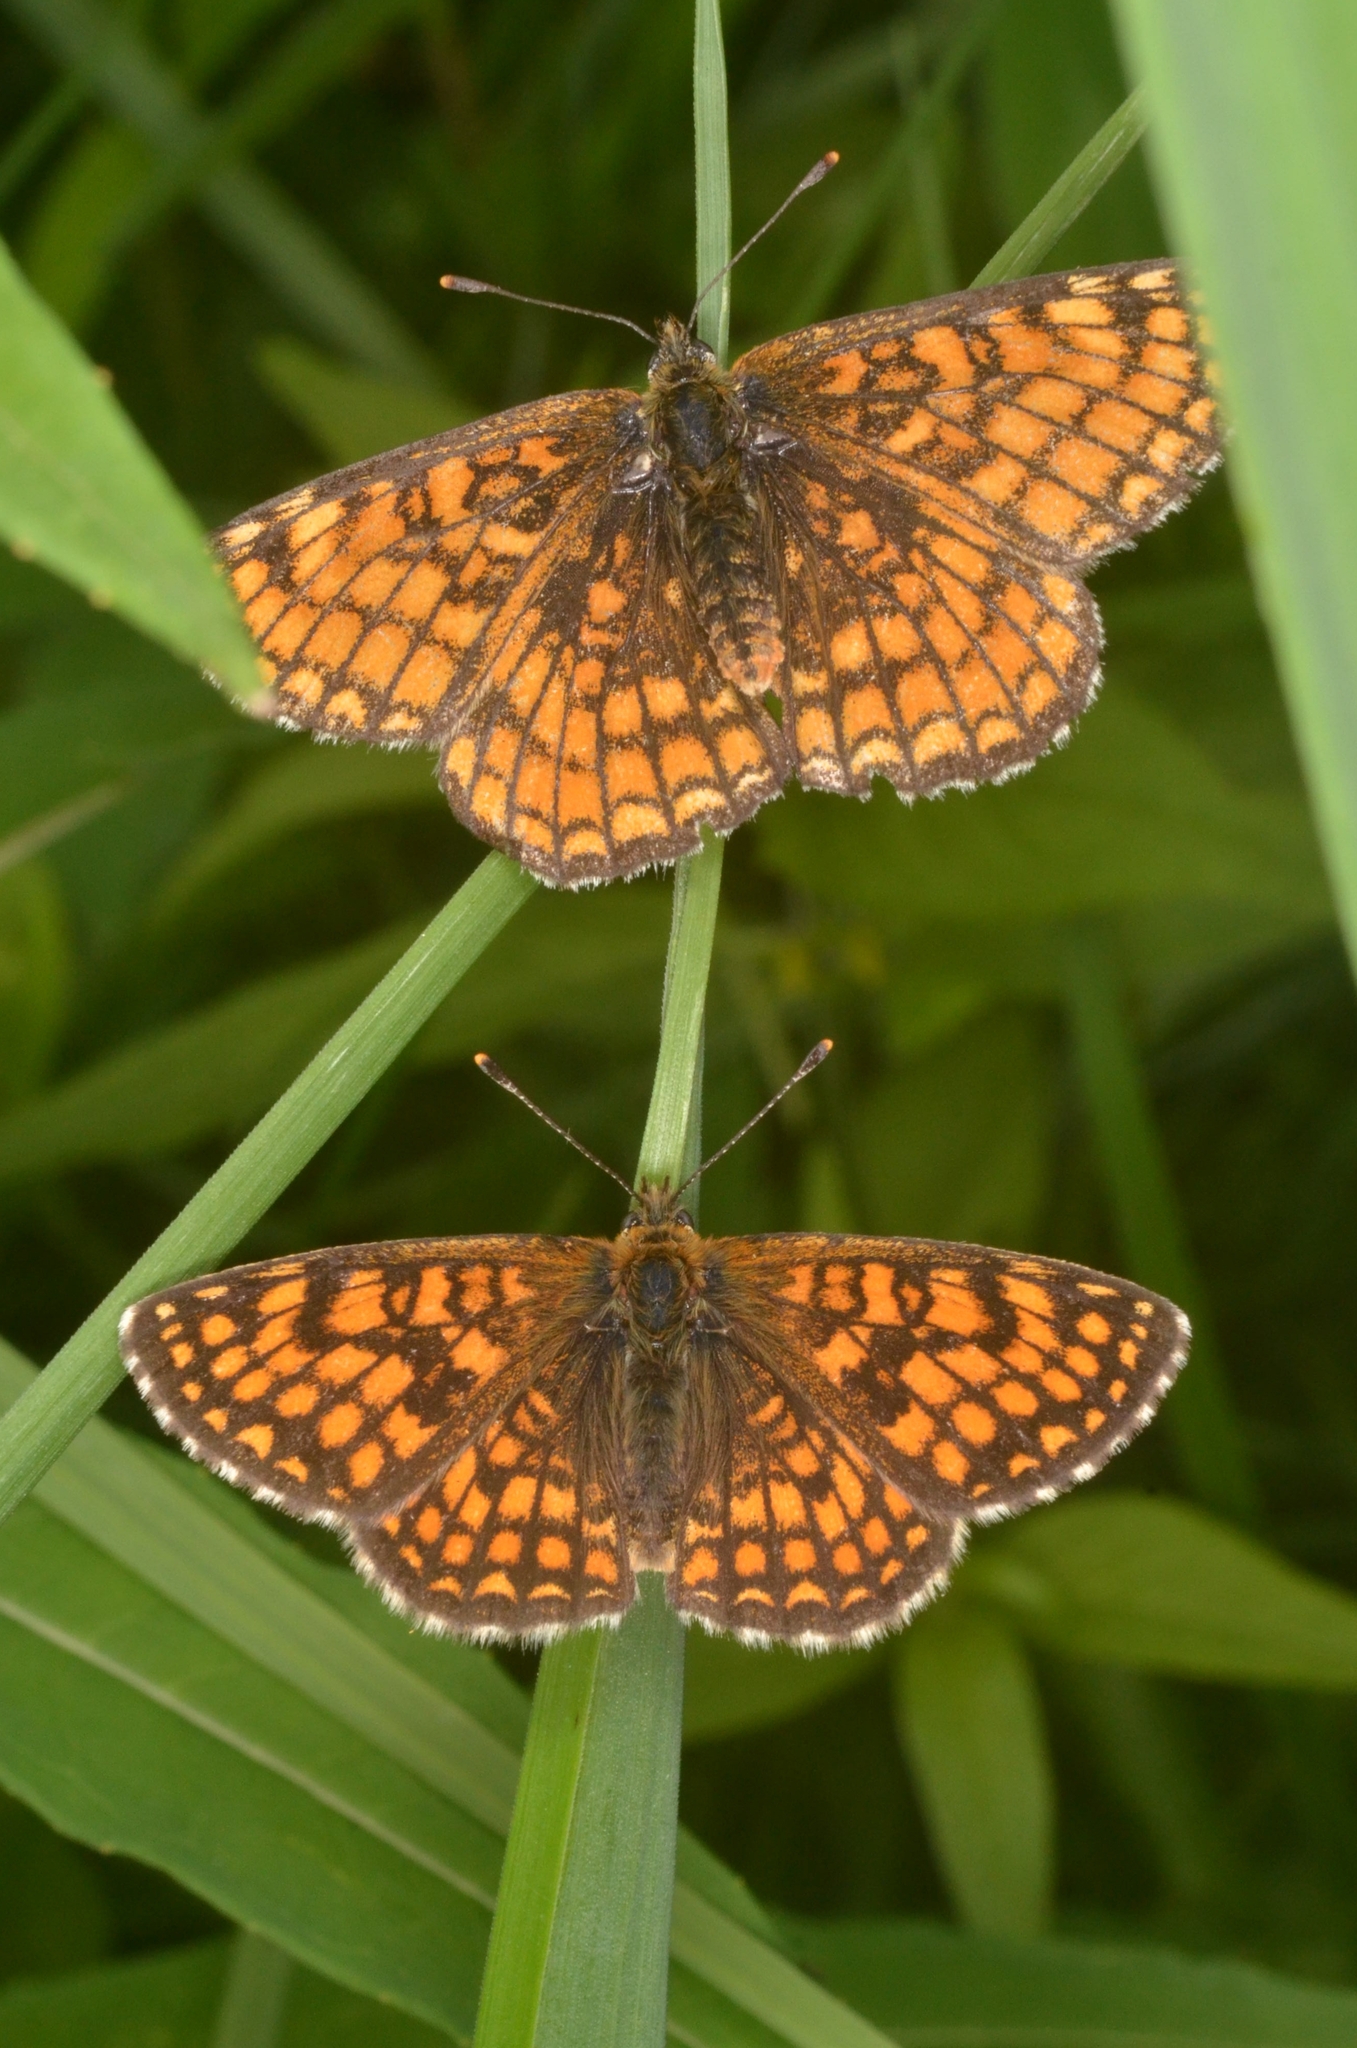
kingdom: Animalia
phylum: Arthropoda
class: Insecta
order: Lepidoptera
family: Nymphalidae
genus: Melitaea
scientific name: Melitaea athalia
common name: Heath fritillary
